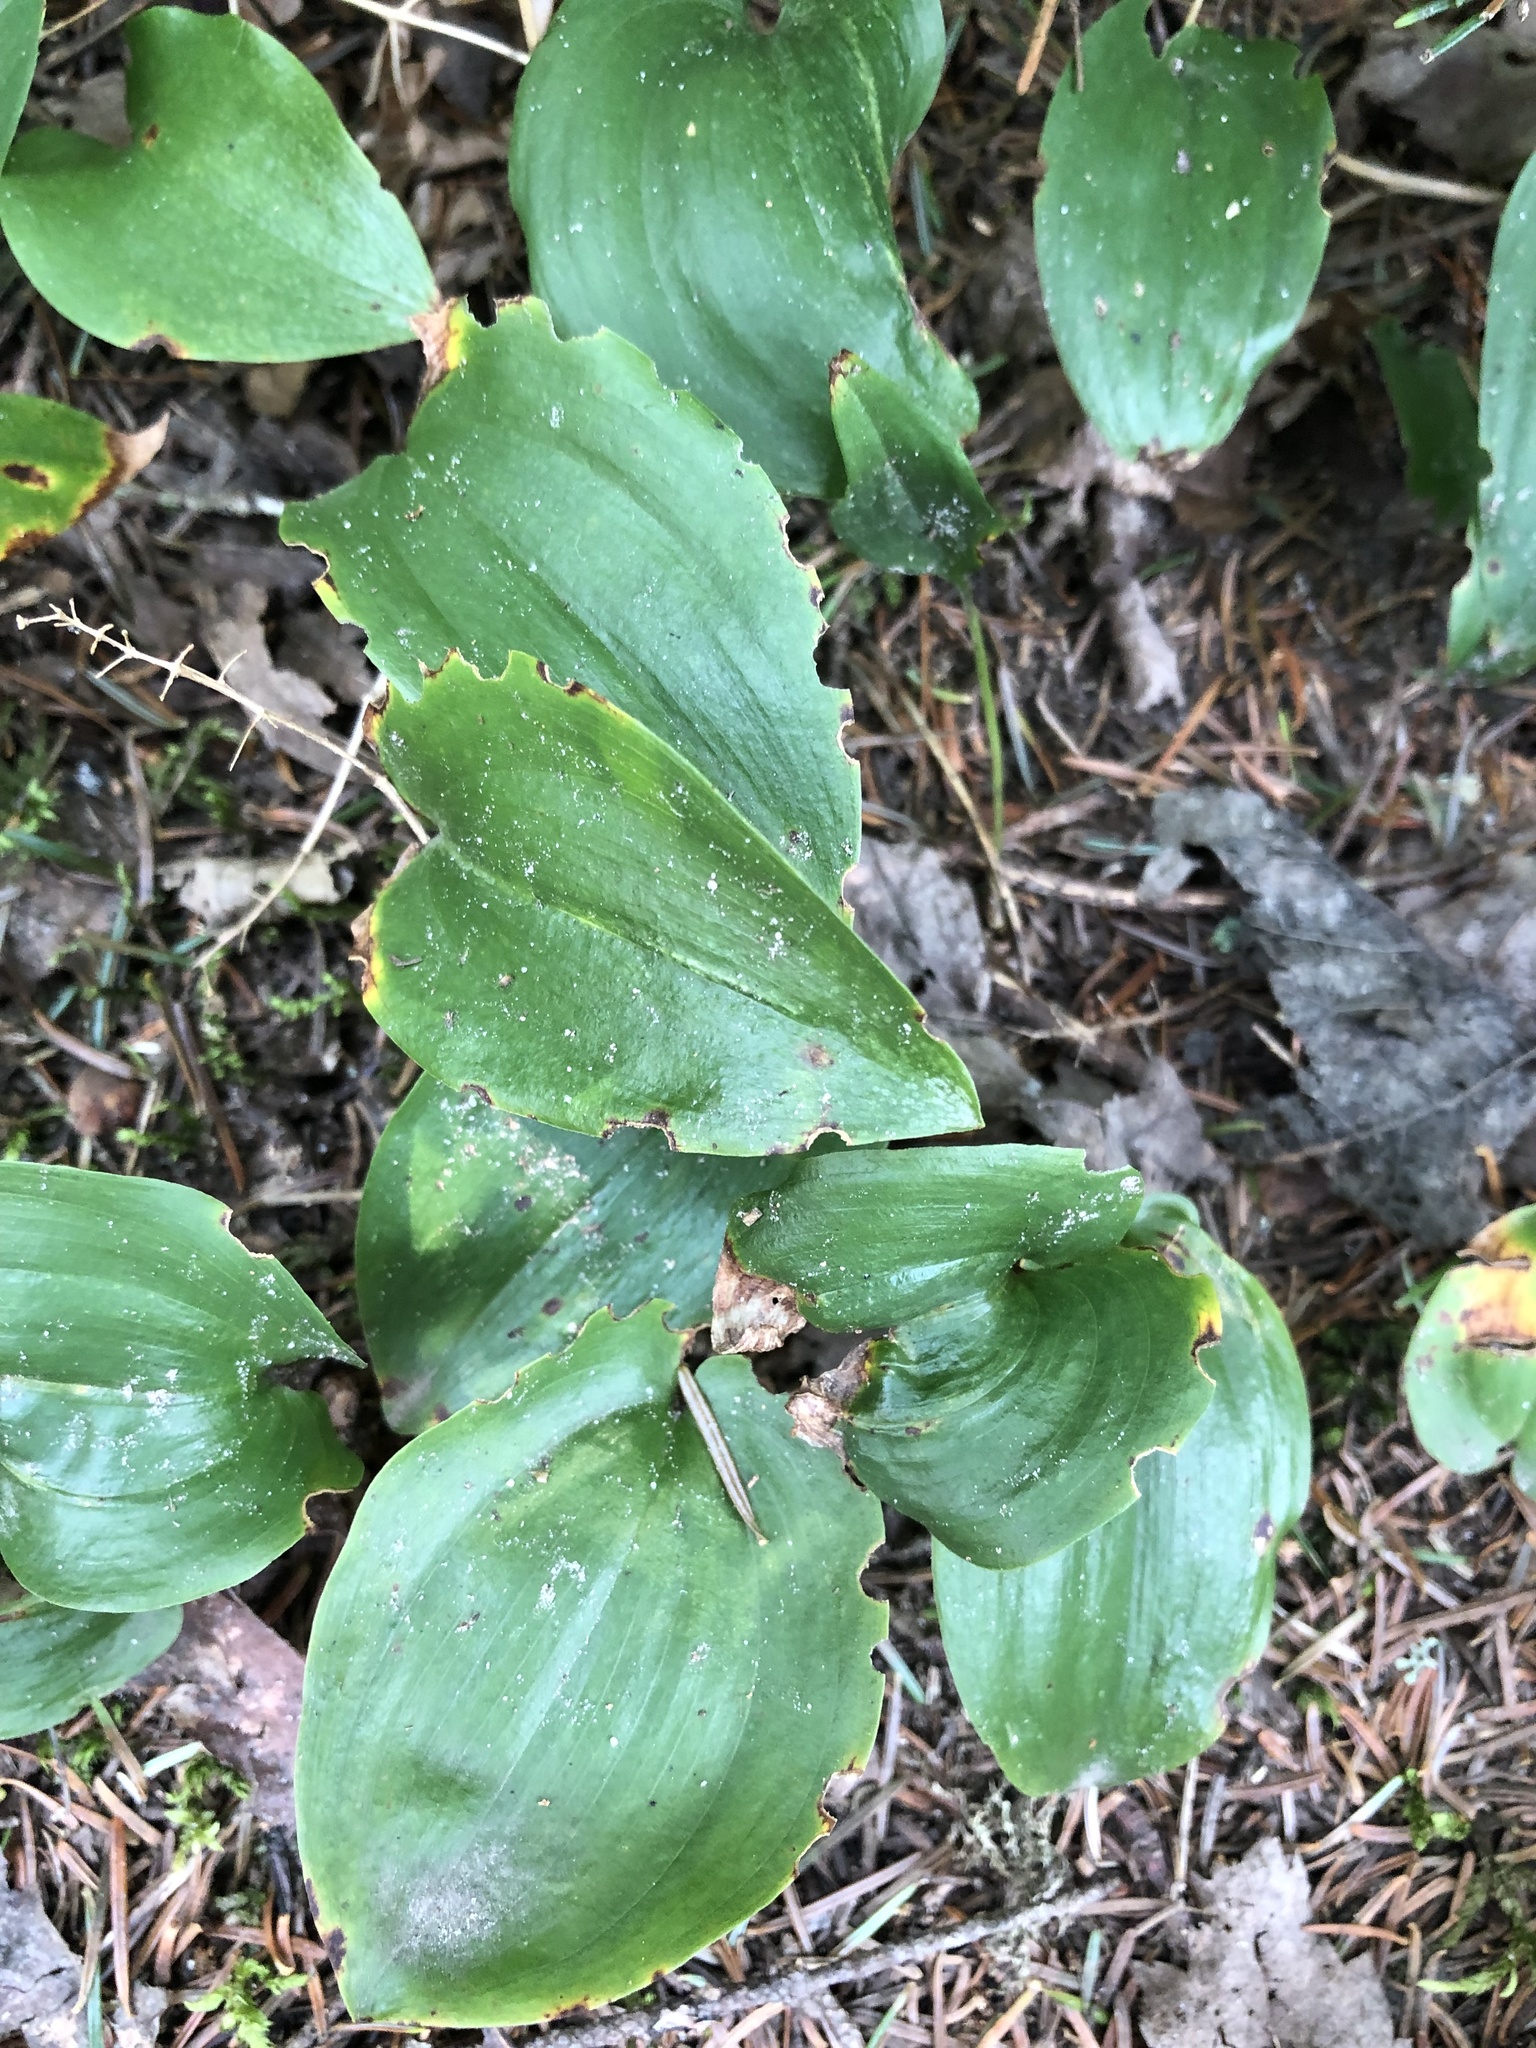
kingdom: Plantae
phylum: Tracheophyta
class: Liliopsida
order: Asparagales
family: Asparagaceae
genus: Maianthemum
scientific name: Maianthemum canadense
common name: False lily-of-the-valley
